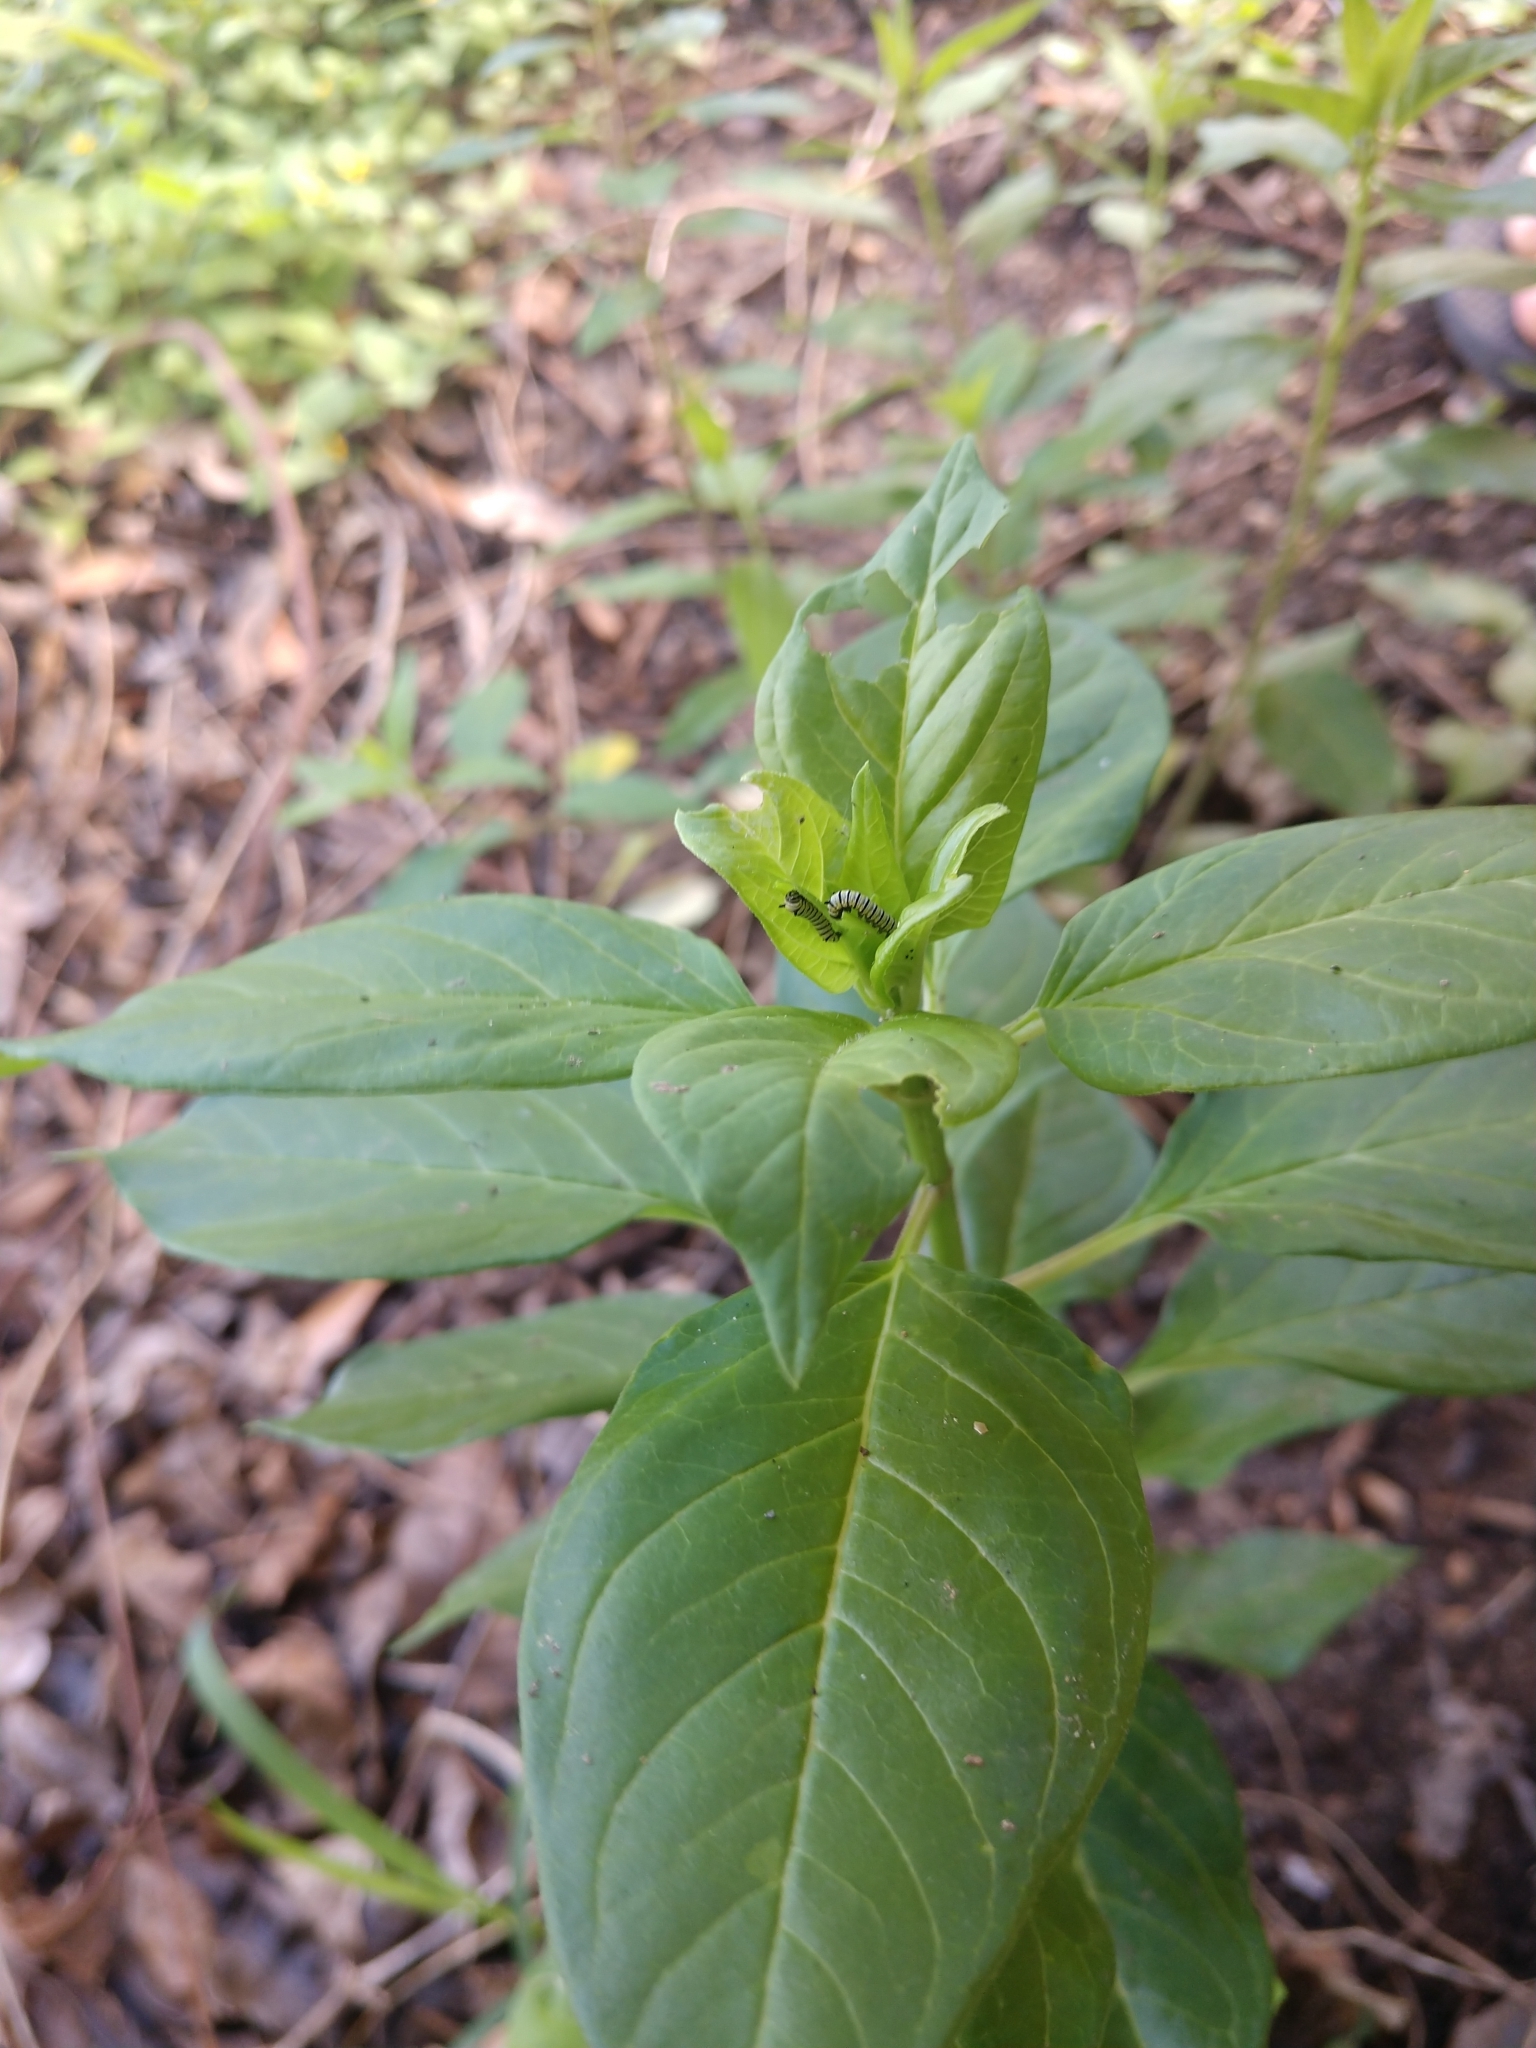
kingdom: Animalia
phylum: Arthropoda
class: Insecta
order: Lepidoptera
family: Nymphalidae
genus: Danaus
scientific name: Danaus plexippus
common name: Monarch
